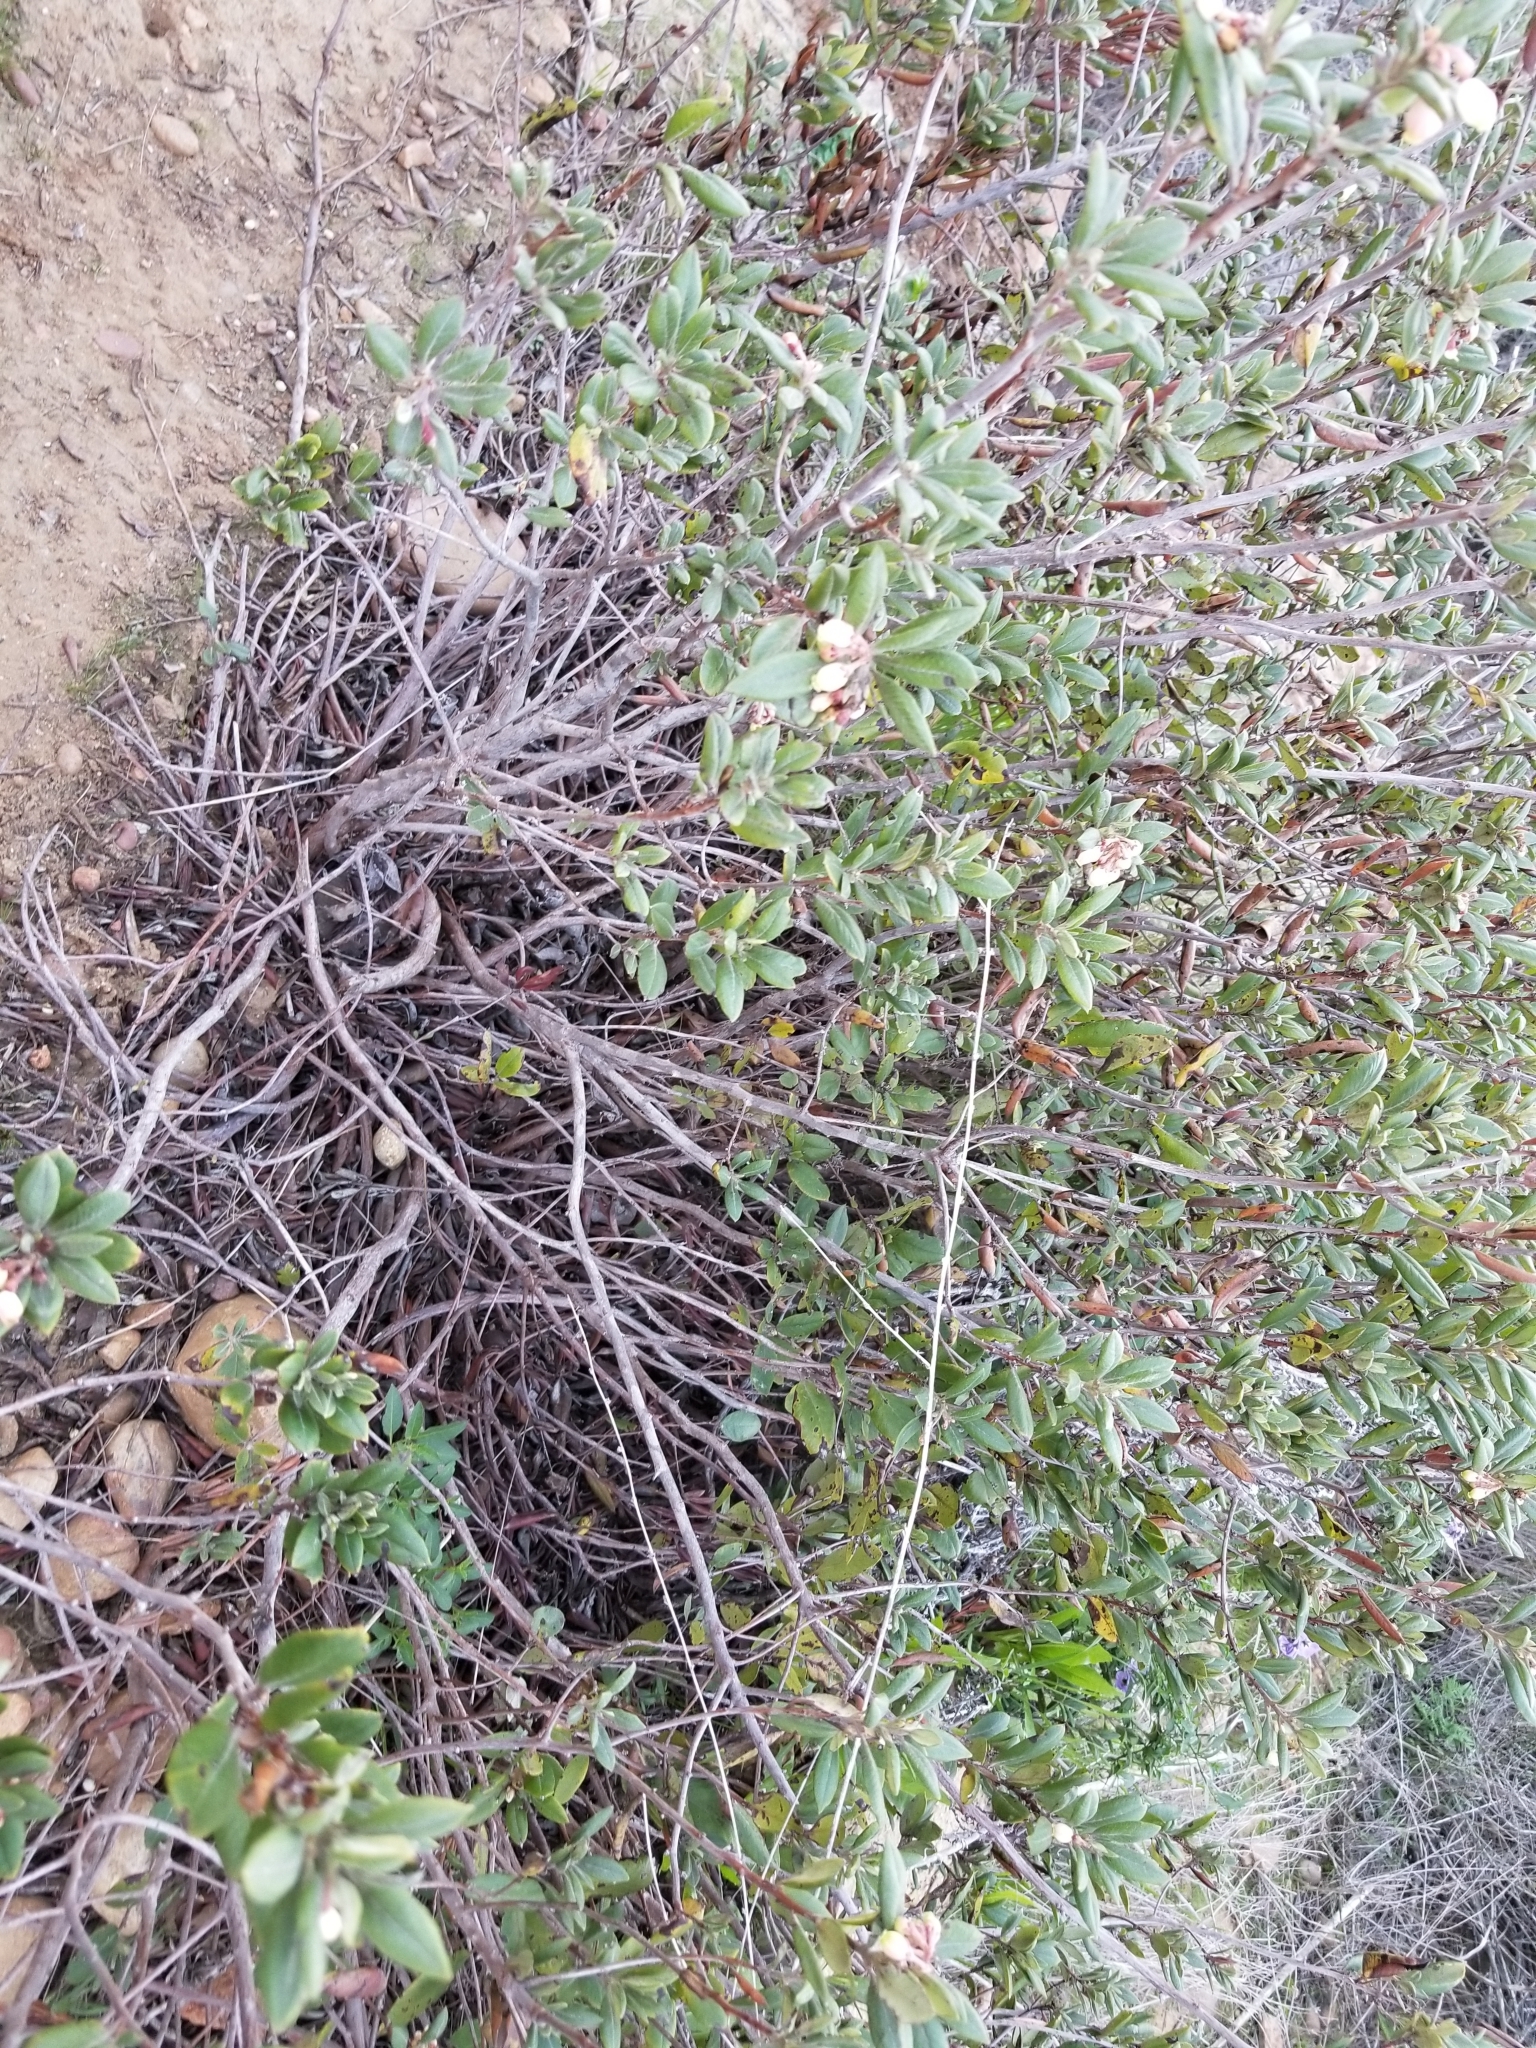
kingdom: Plantae
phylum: Tracheophyta
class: Magnoliopsida
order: Ericales
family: Ericaceae
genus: Arctostaphylos
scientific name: Arctostaphylos bicolor
